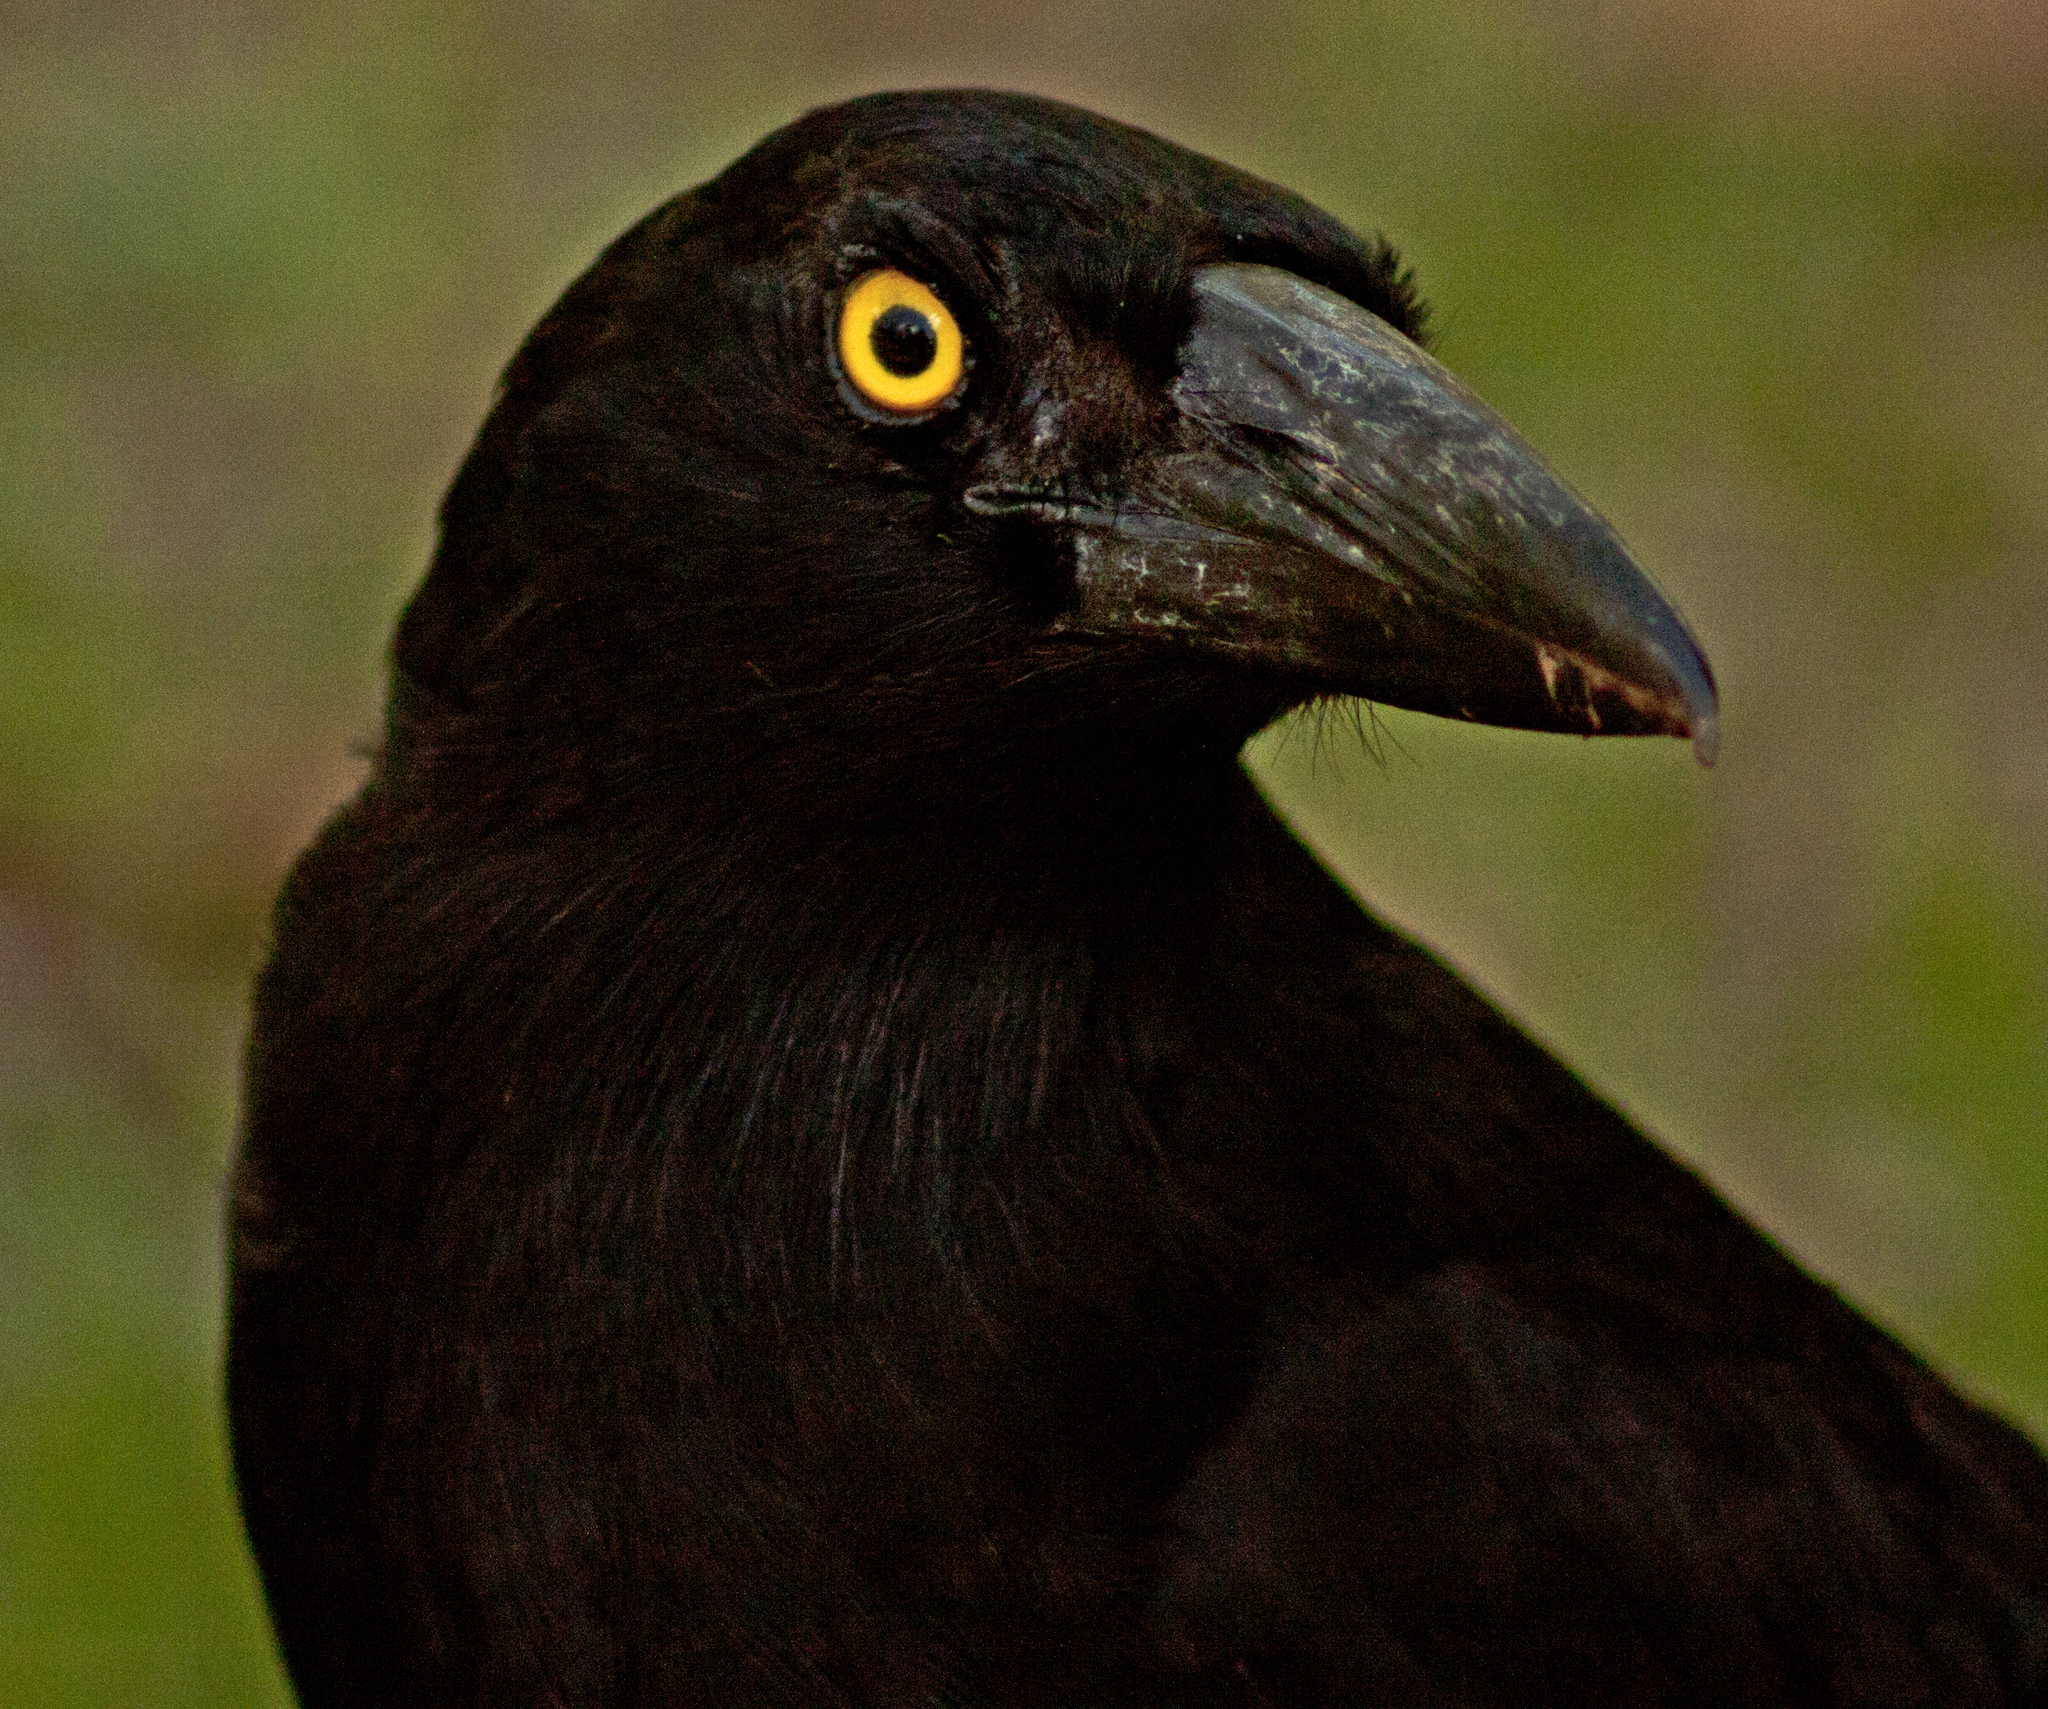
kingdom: Animalia
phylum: Chordata
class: Aves
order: Passeriformes
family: Cracticidae
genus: Strepera
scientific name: Strepera graculina
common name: Pied currawong
